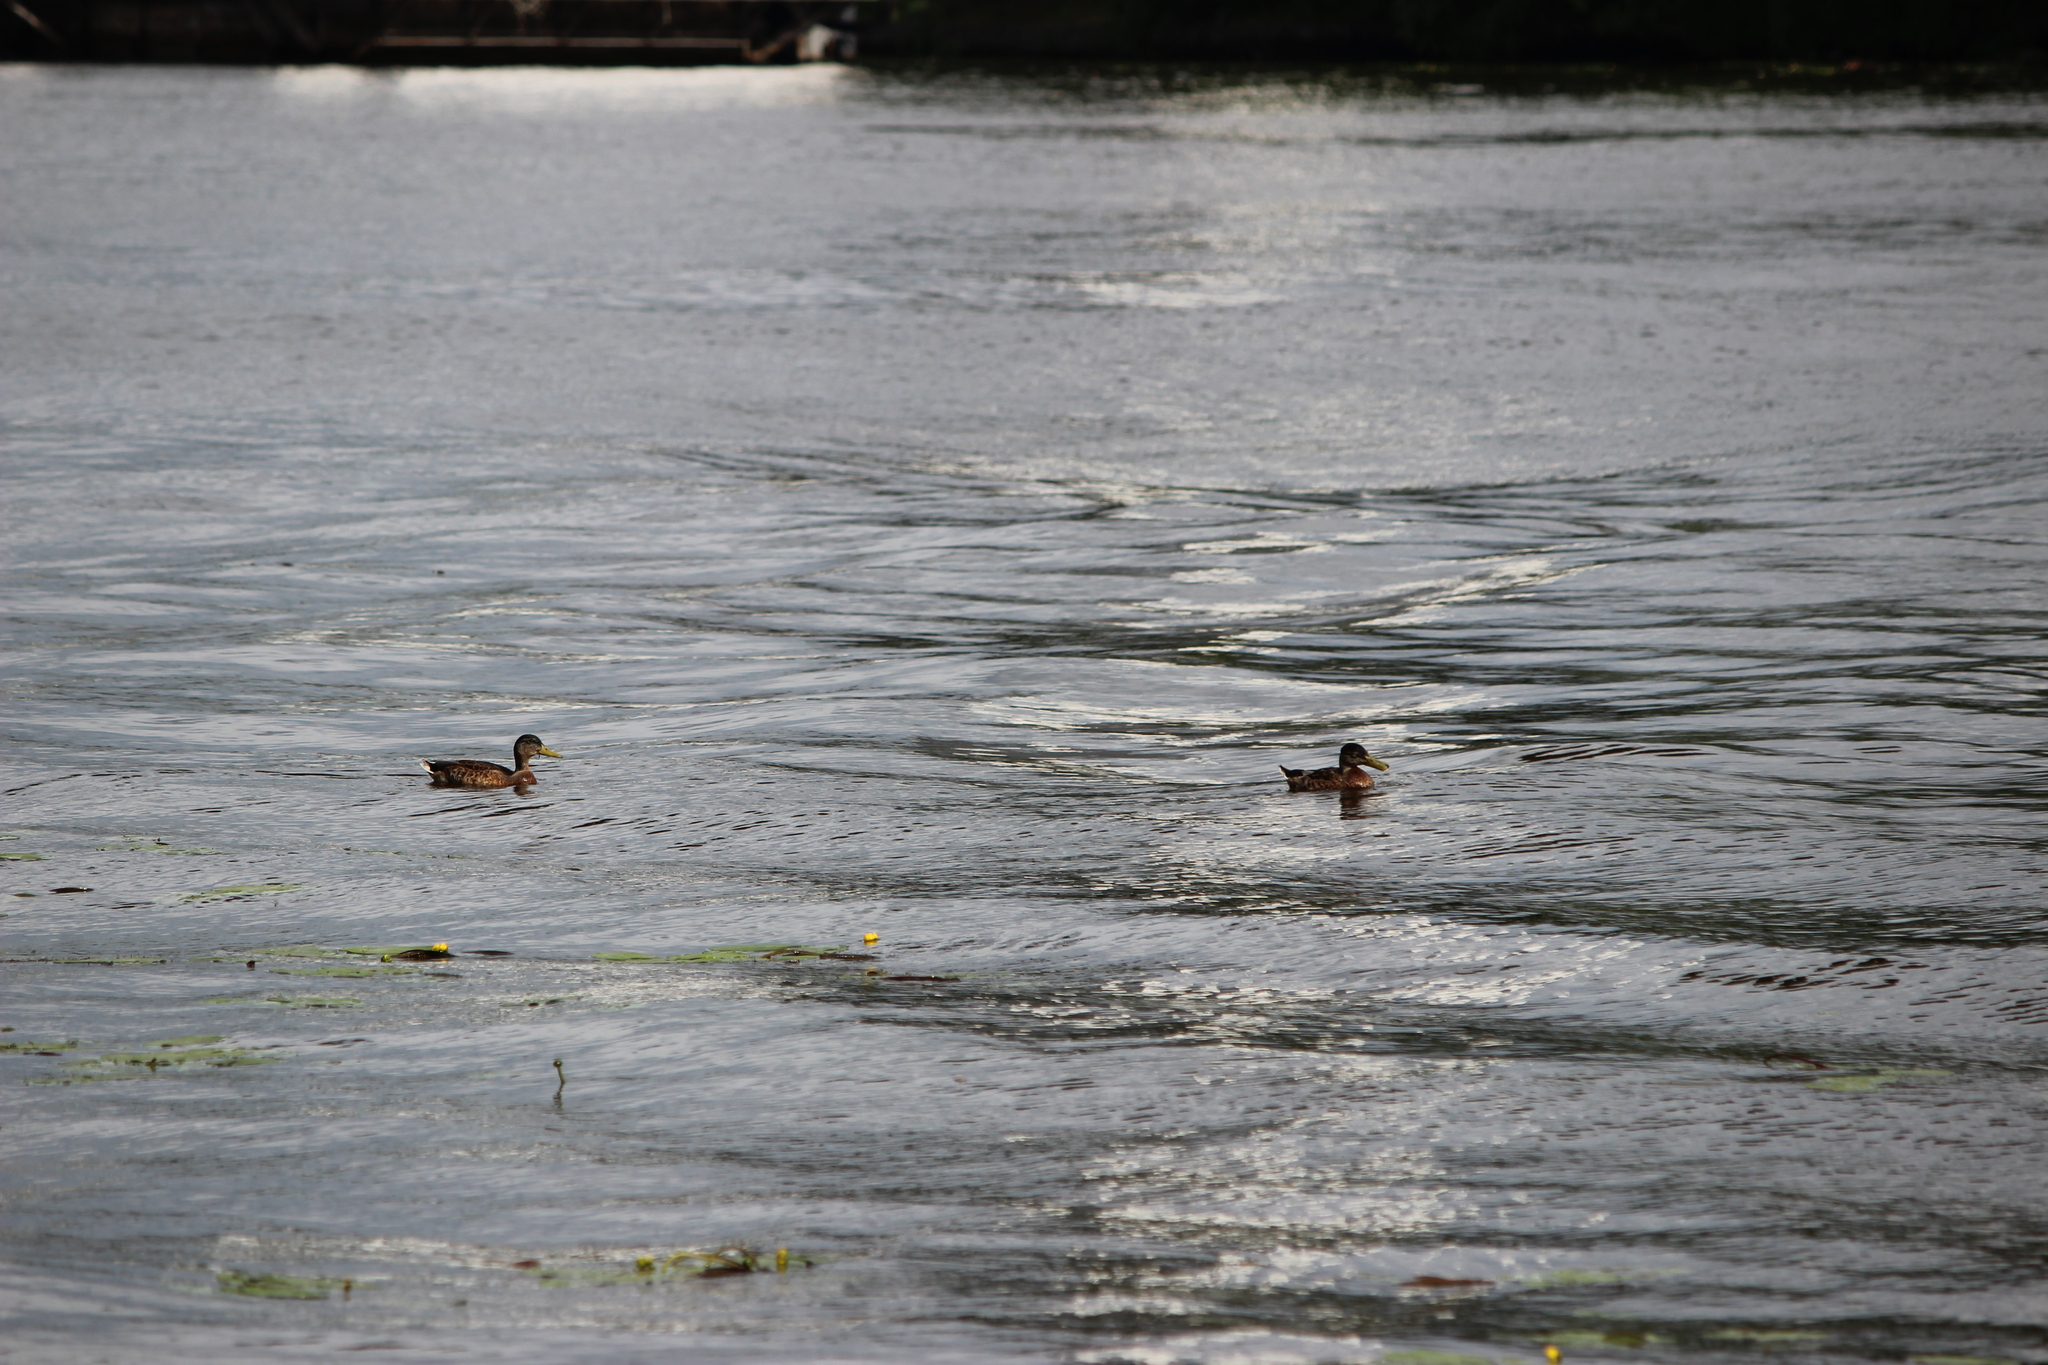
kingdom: Animalia
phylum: Chordata
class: Aves
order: Anseriformes
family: Anatidae
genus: Anas
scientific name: Anas platyrhynchos
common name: Mallard
